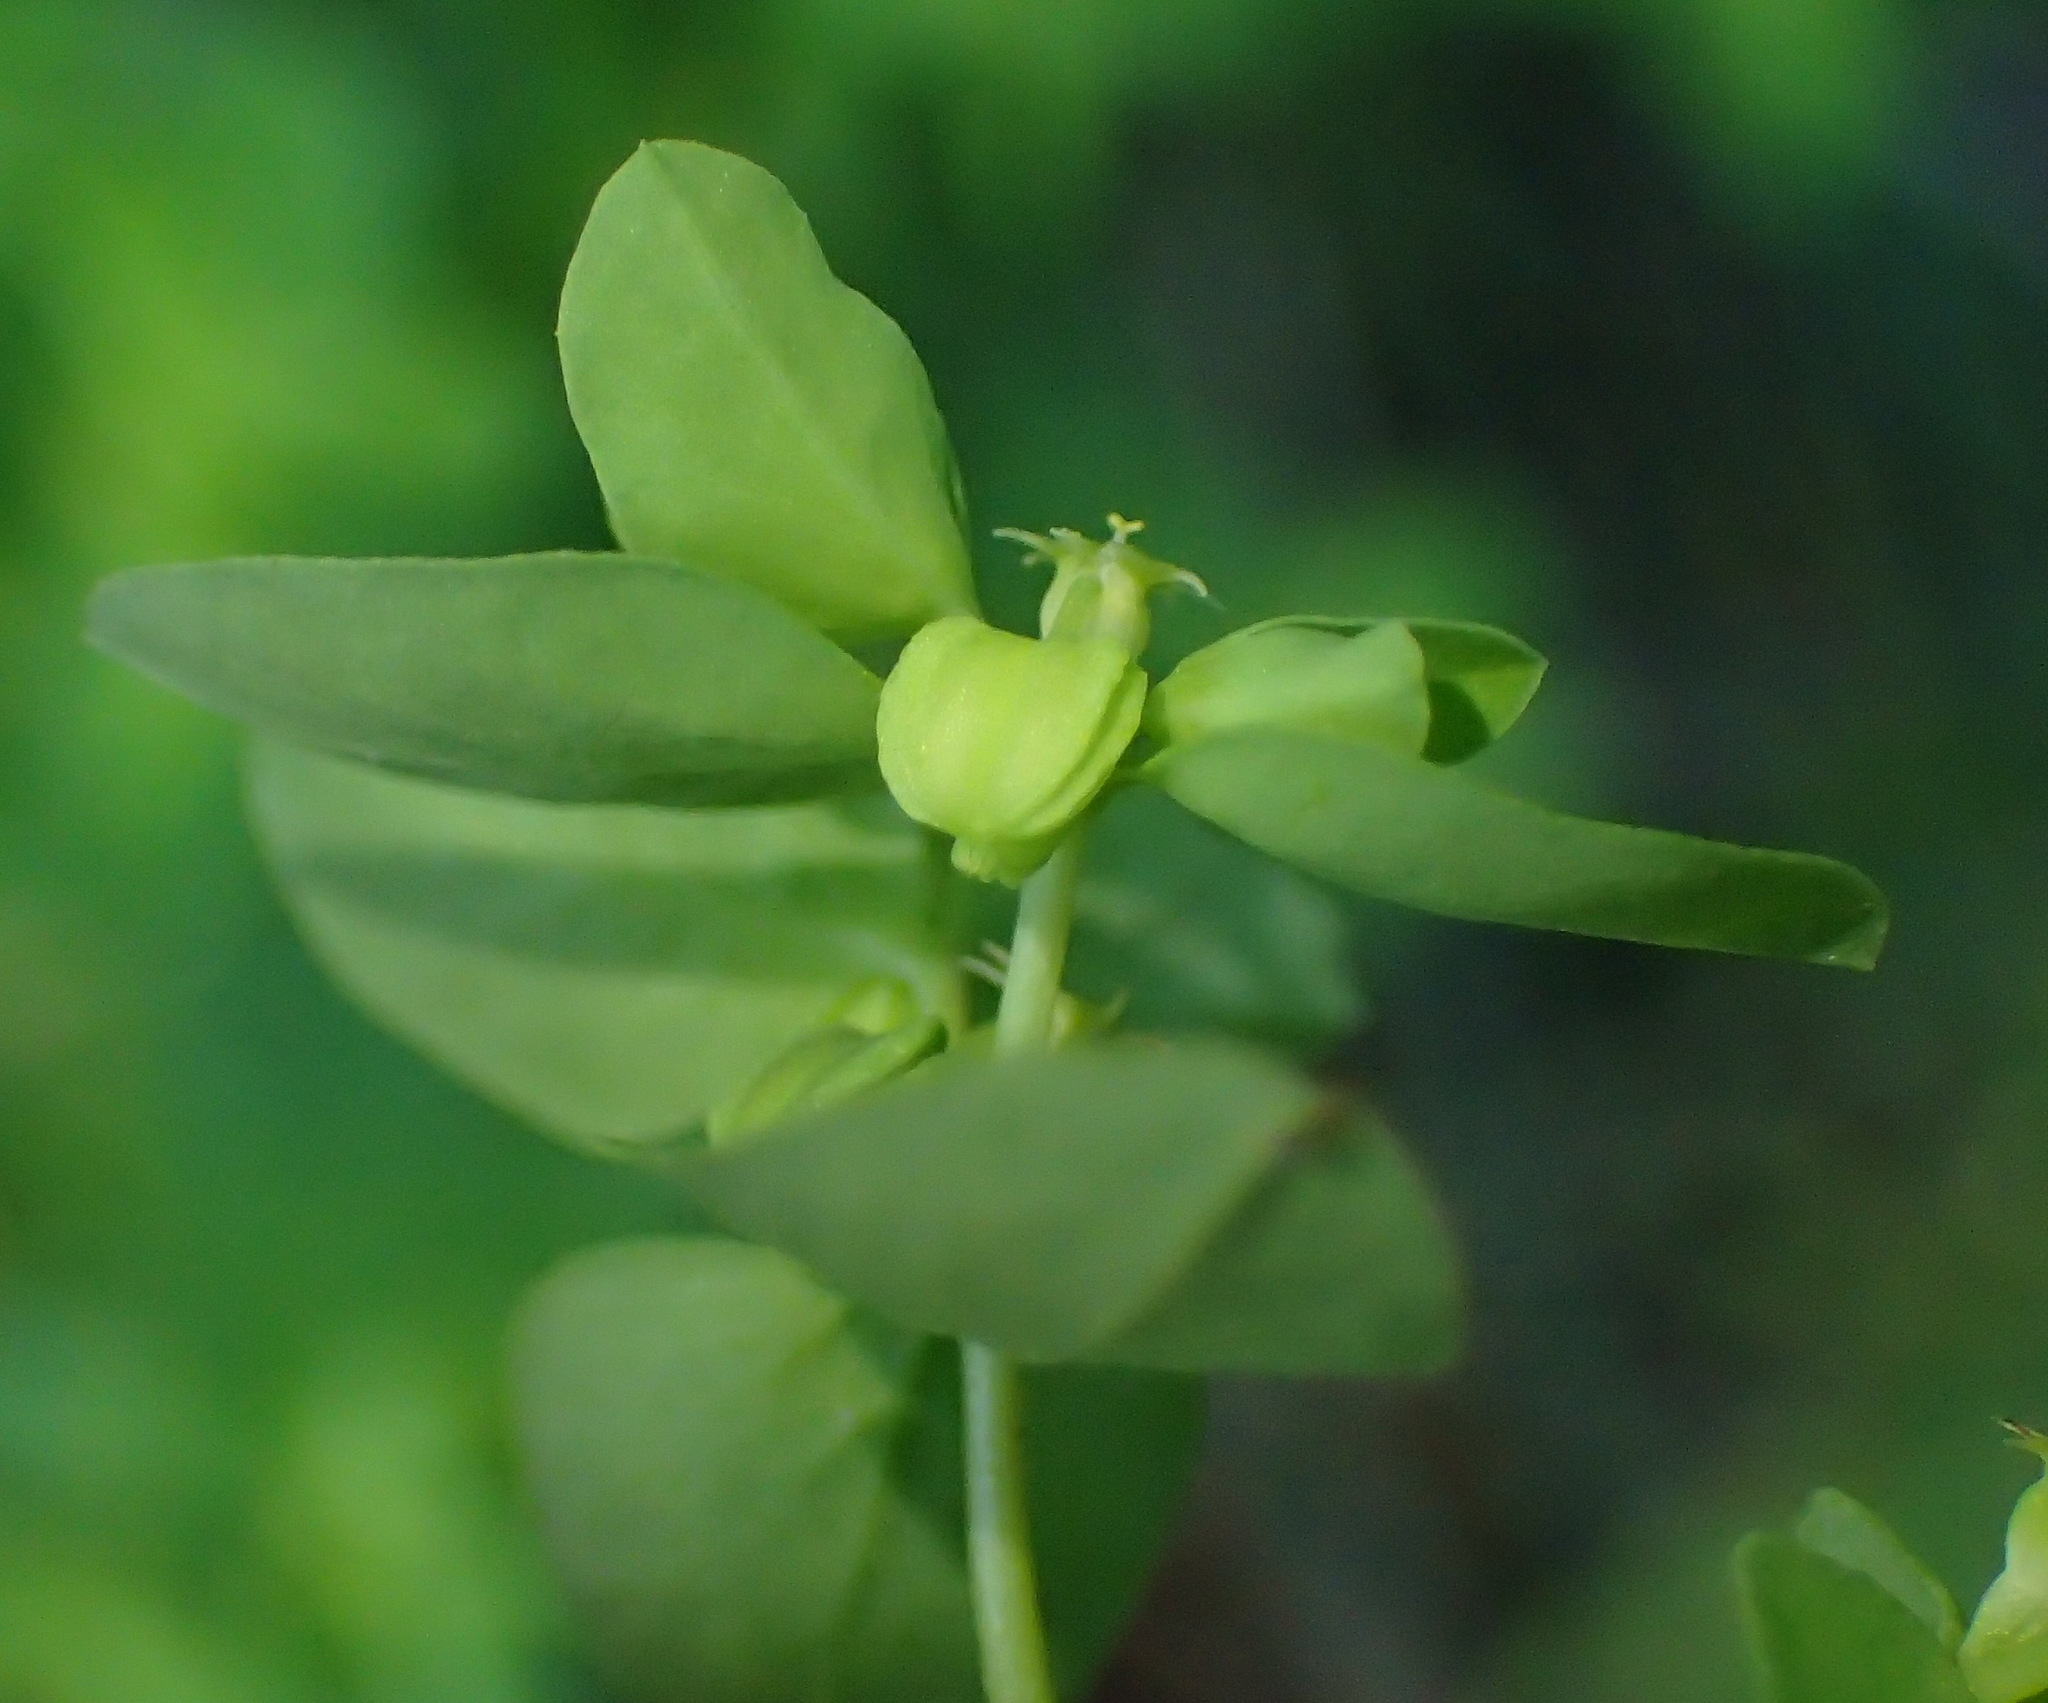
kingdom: Plantae
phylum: Tracheophyta
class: Magnoliopsida
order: Malpighiales
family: Euphorbiaceae
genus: Euphorbia
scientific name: Euphorbia peplus
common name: Petty spurge
